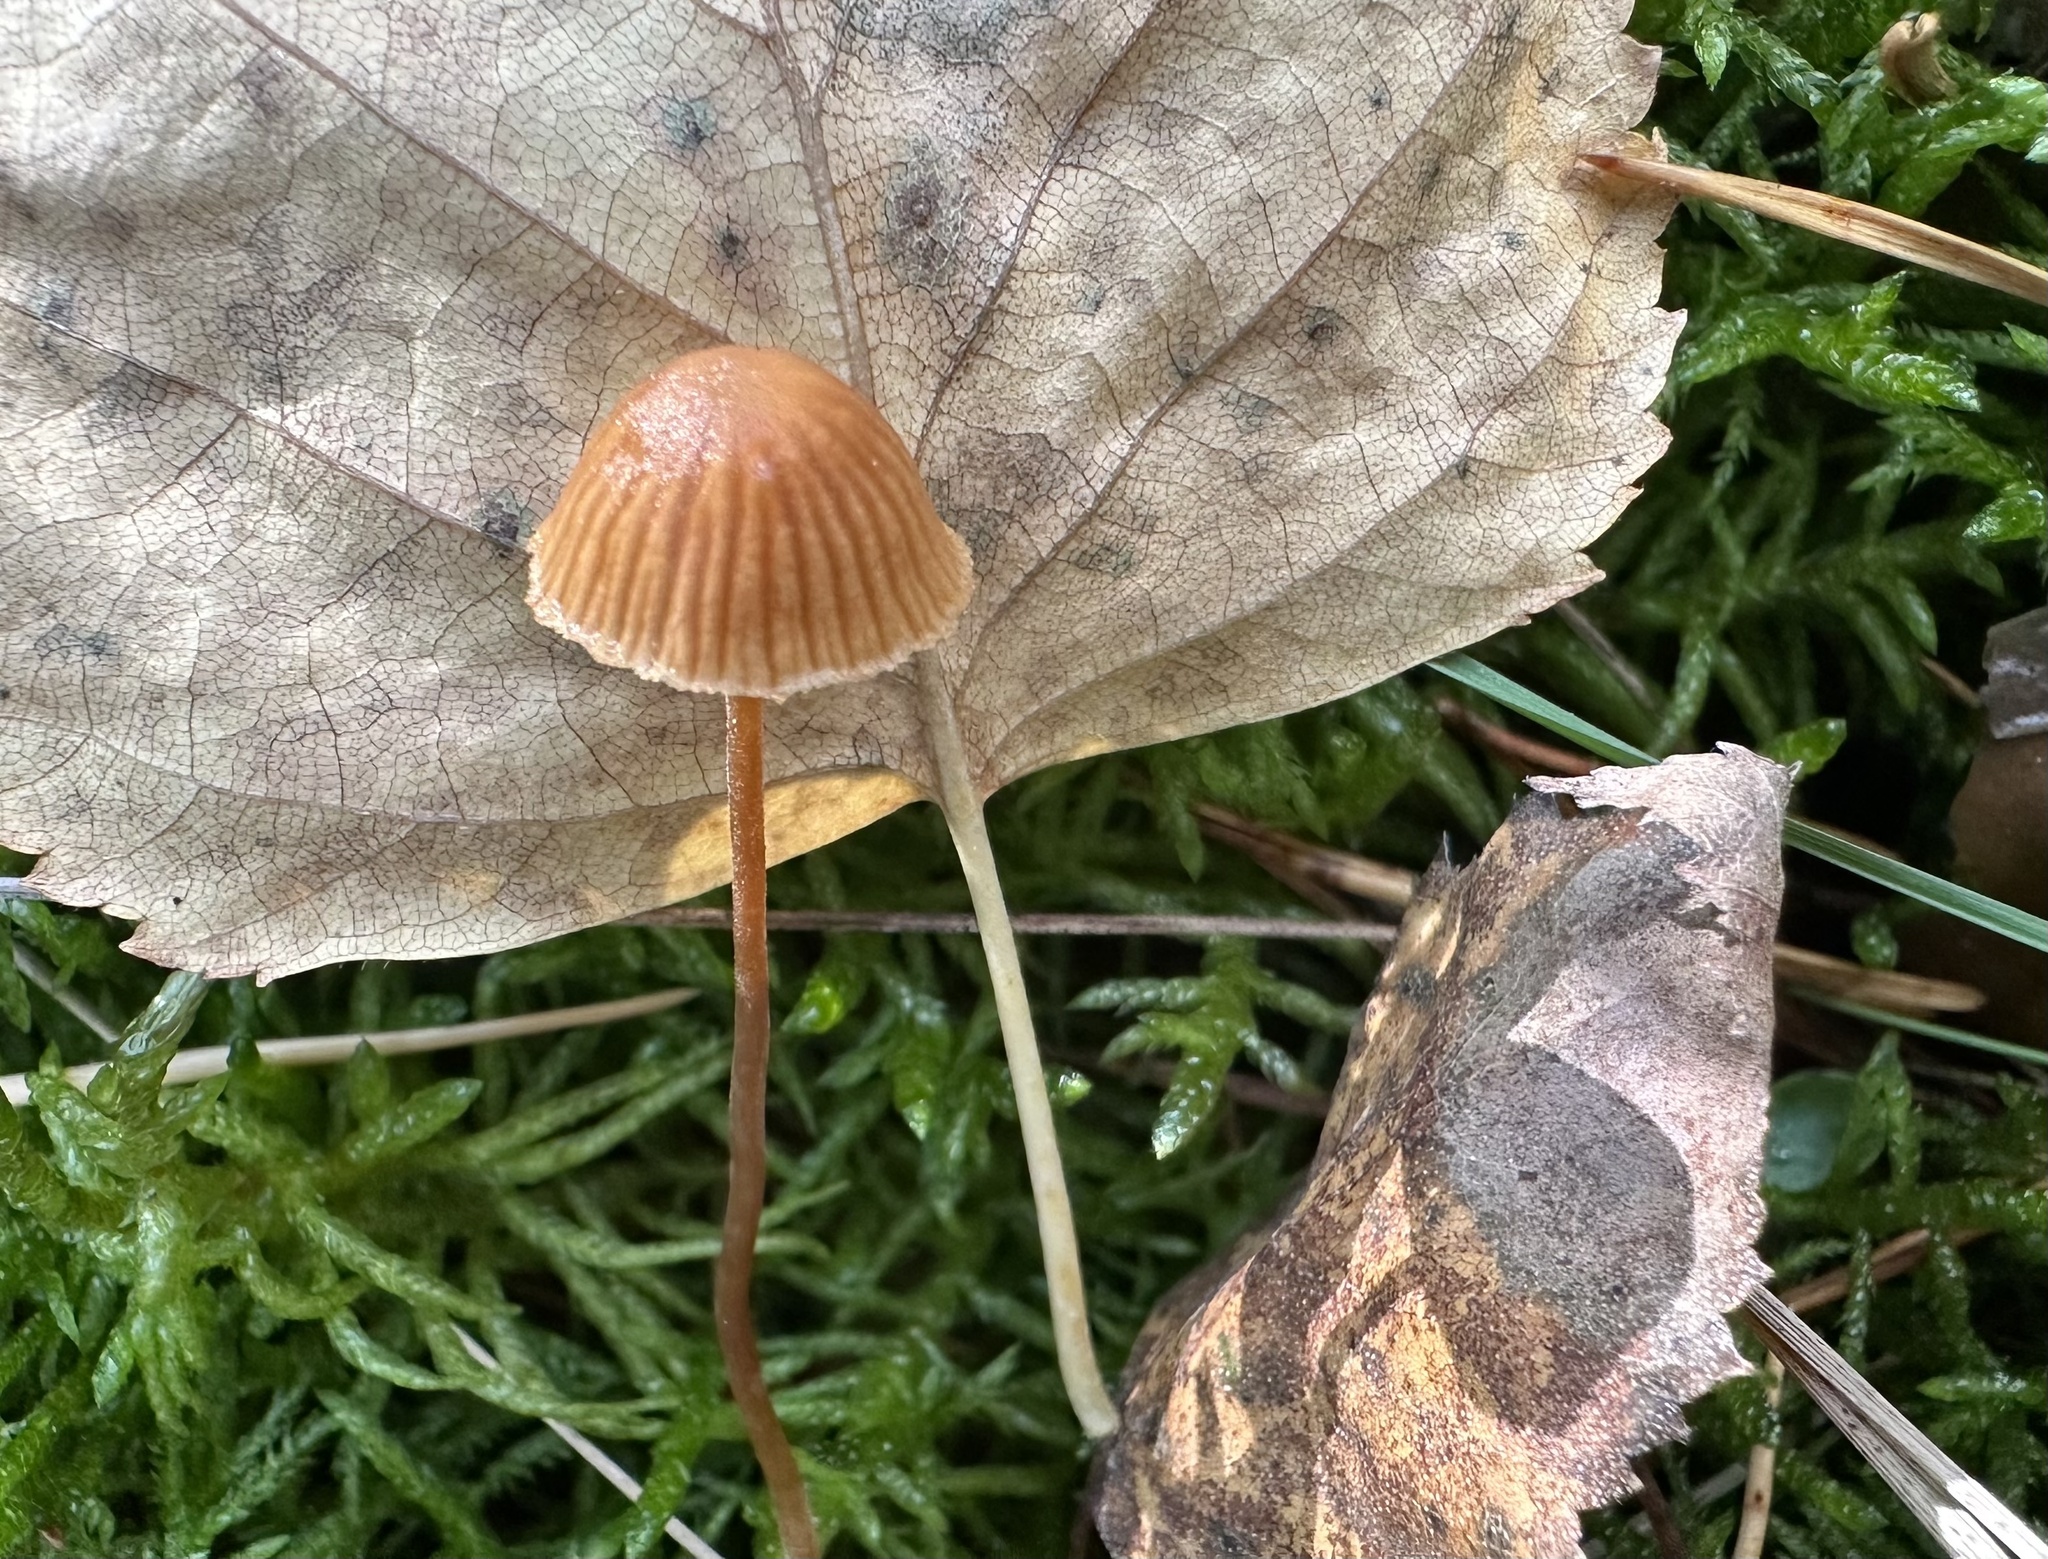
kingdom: Fungi
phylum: Basidiomycota
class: Agaricomycetes
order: Agaricales
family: Hymenogastraceae
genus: Galerina
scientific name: Galerina vittiformis
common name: Hairy leg bell
